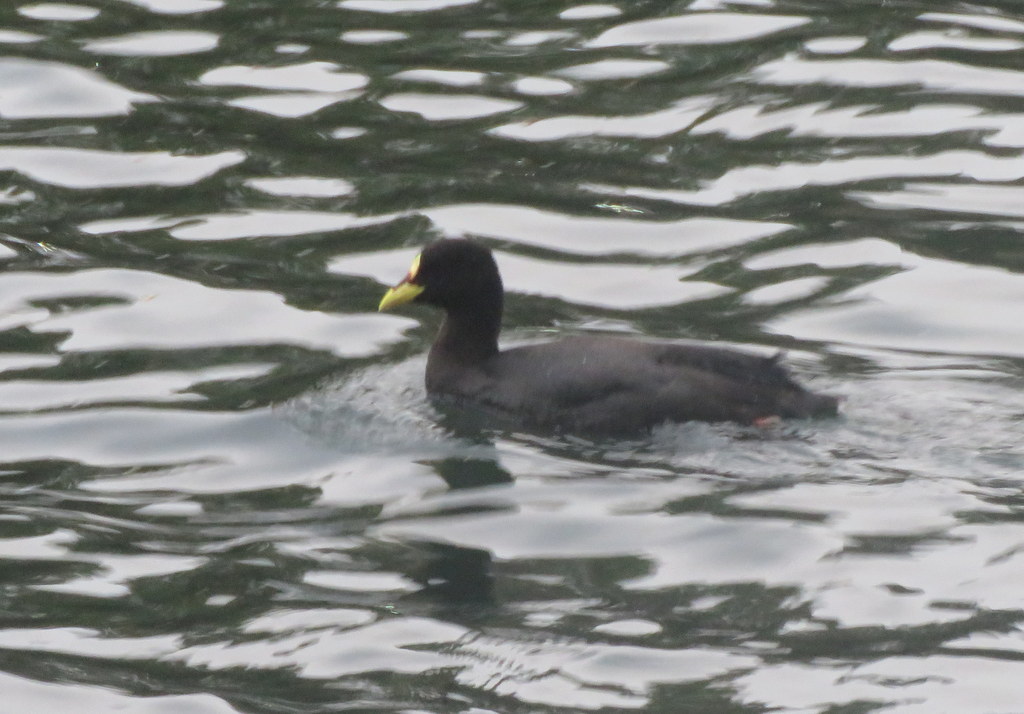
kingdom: Animalia
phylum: Chordata
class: Aves
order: Gruiformes
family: Rallidae
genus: Fulica
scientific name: Fulica armillata
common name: Red-gartered coot
